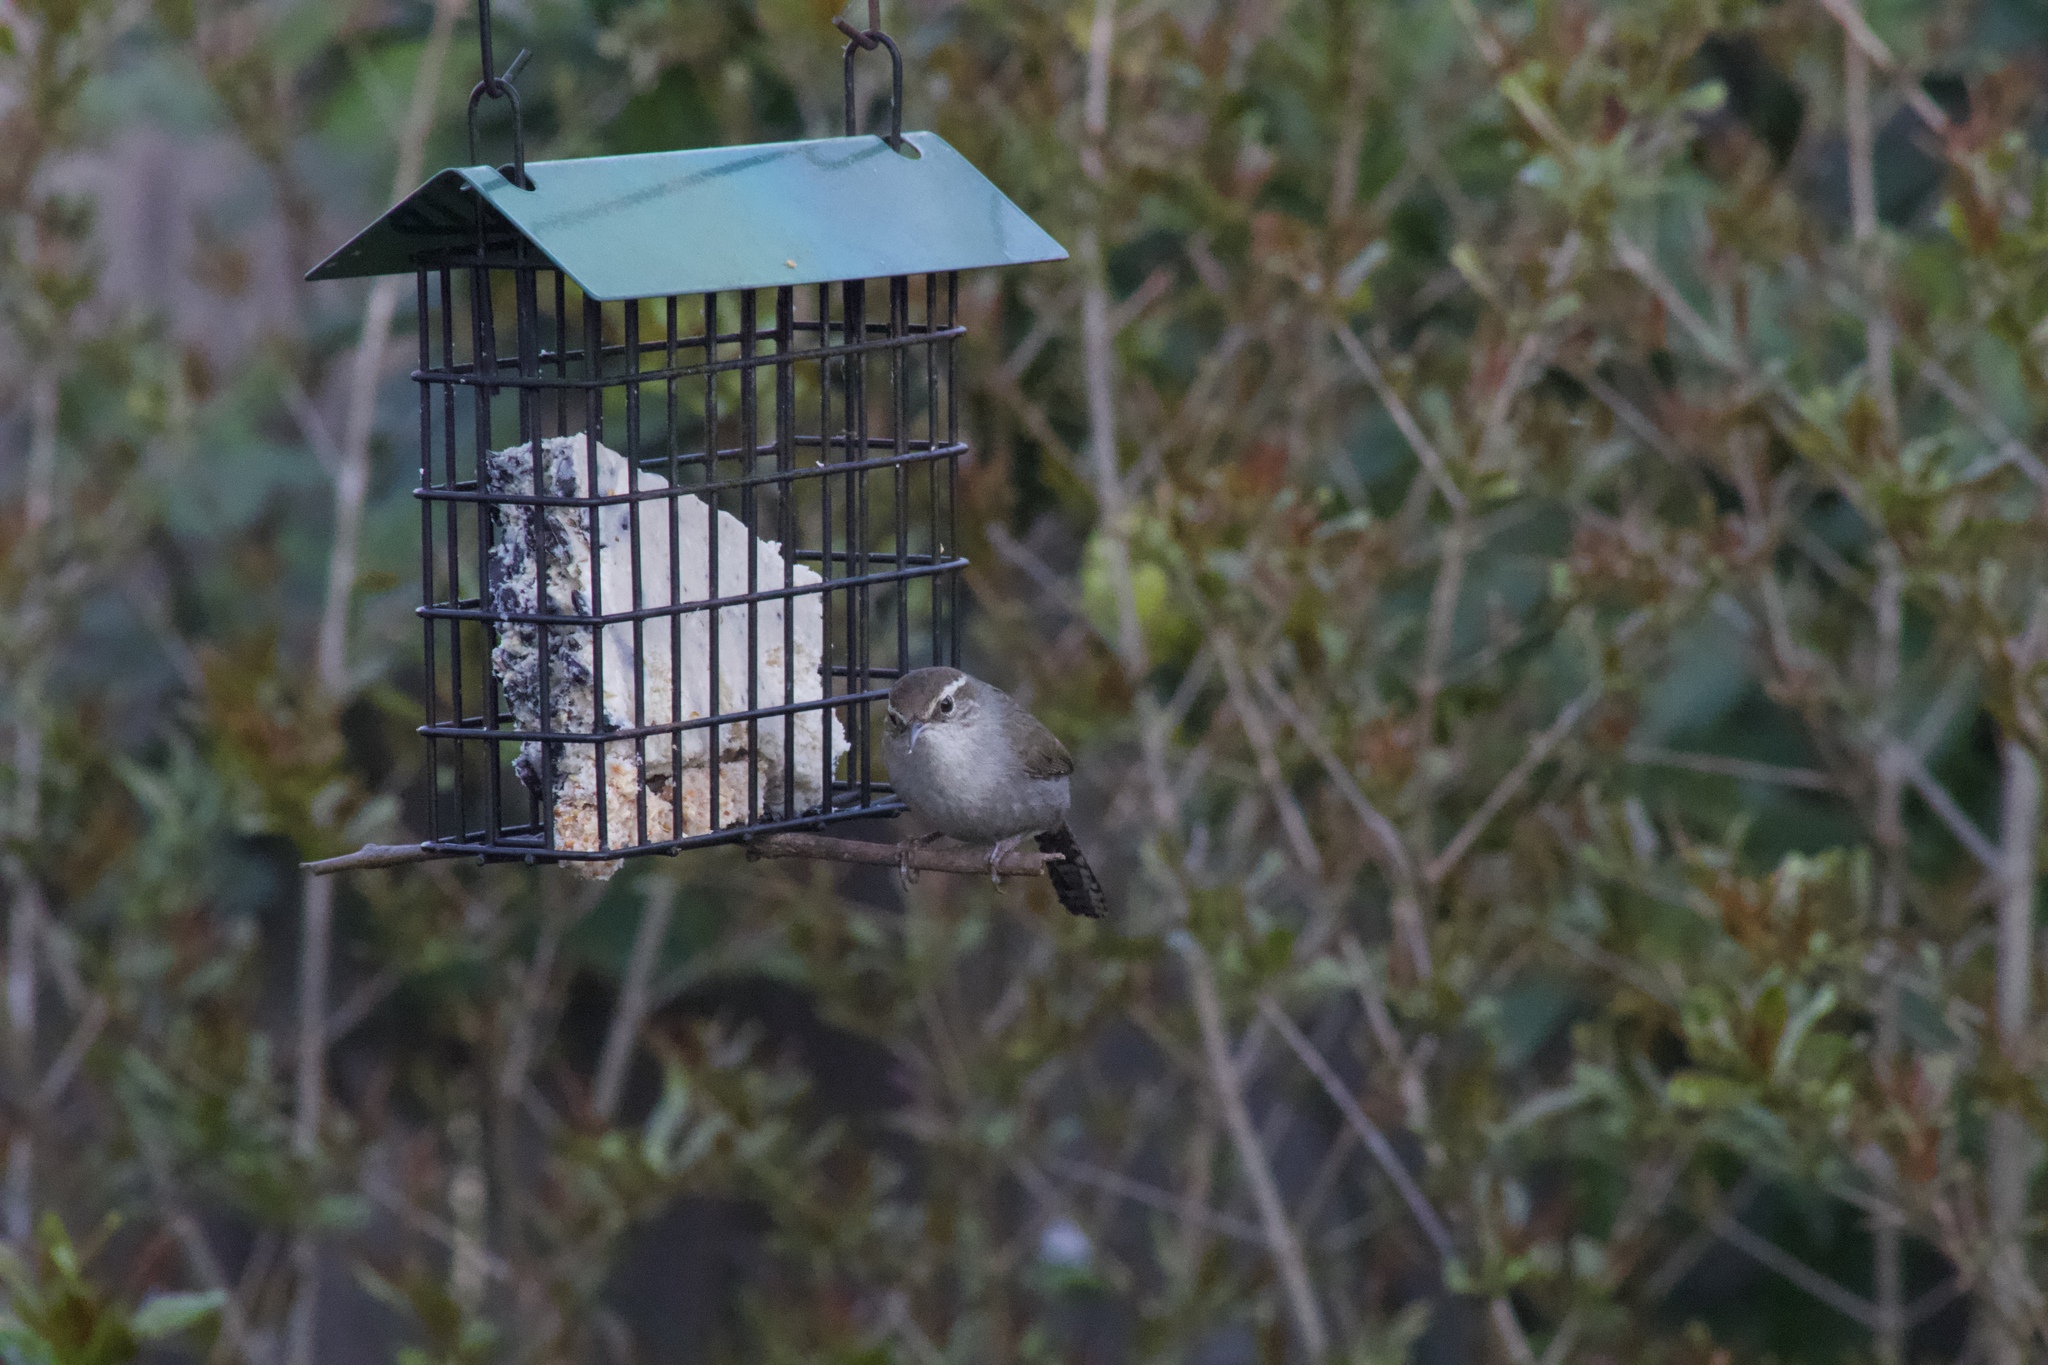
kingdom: Animalia
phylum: Chordata
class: Aves
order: Passeriformes
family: Troglodytidae
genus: Thryomanes
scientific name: Thryomanes bewickii
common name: Bewick's wren
